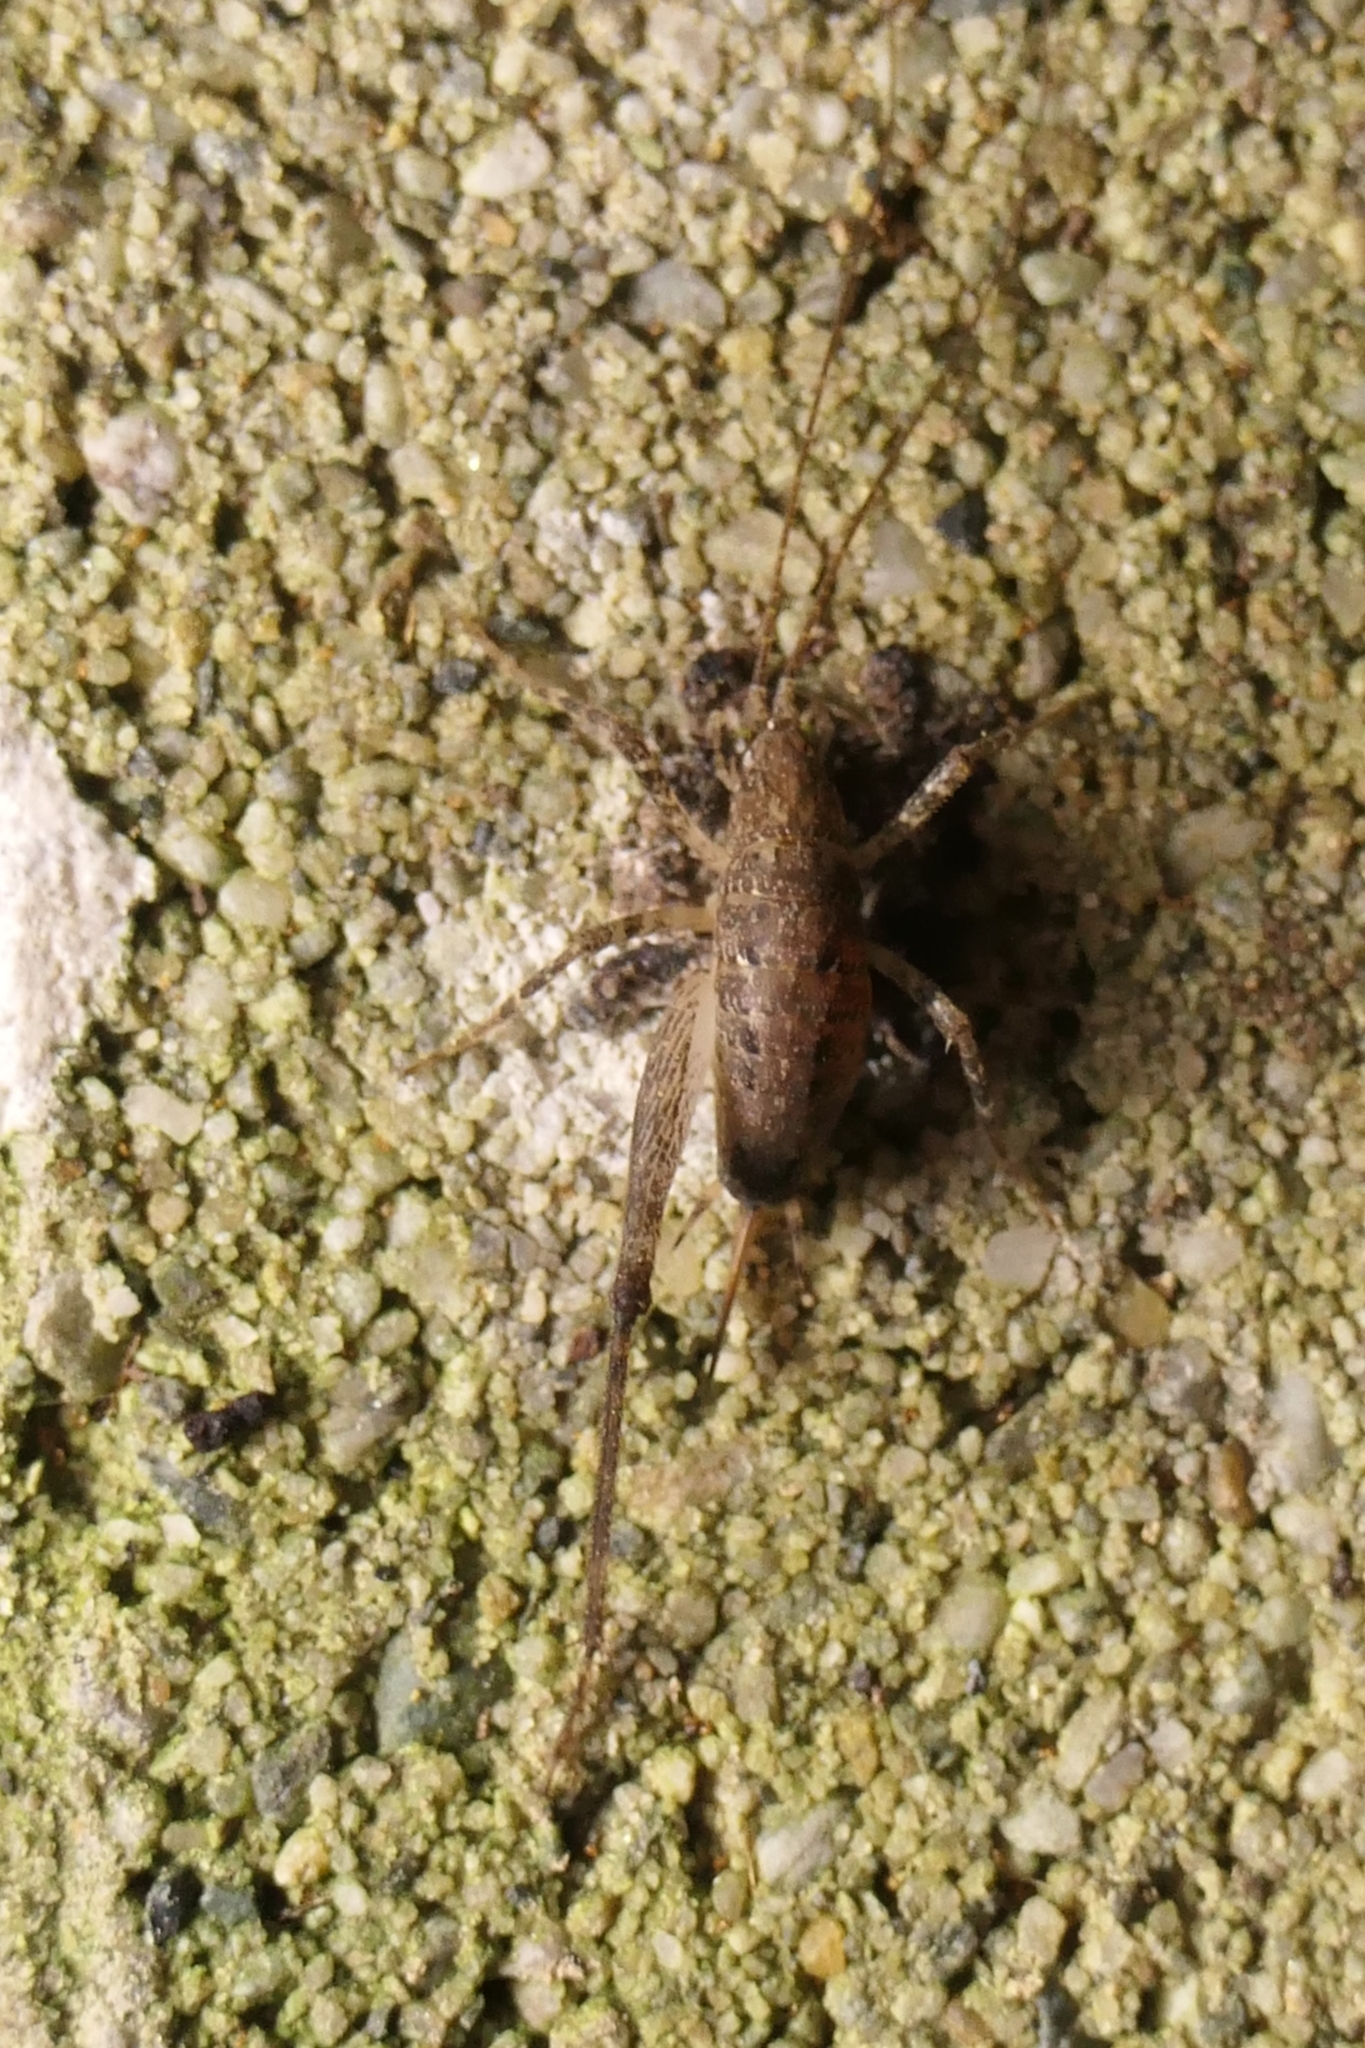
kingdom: Animalia
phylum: Arthropoda
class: Insecta
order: Orthoptera
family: Rhaphidophoridae
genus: Isoplectron
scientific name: Isoplectron armatum
